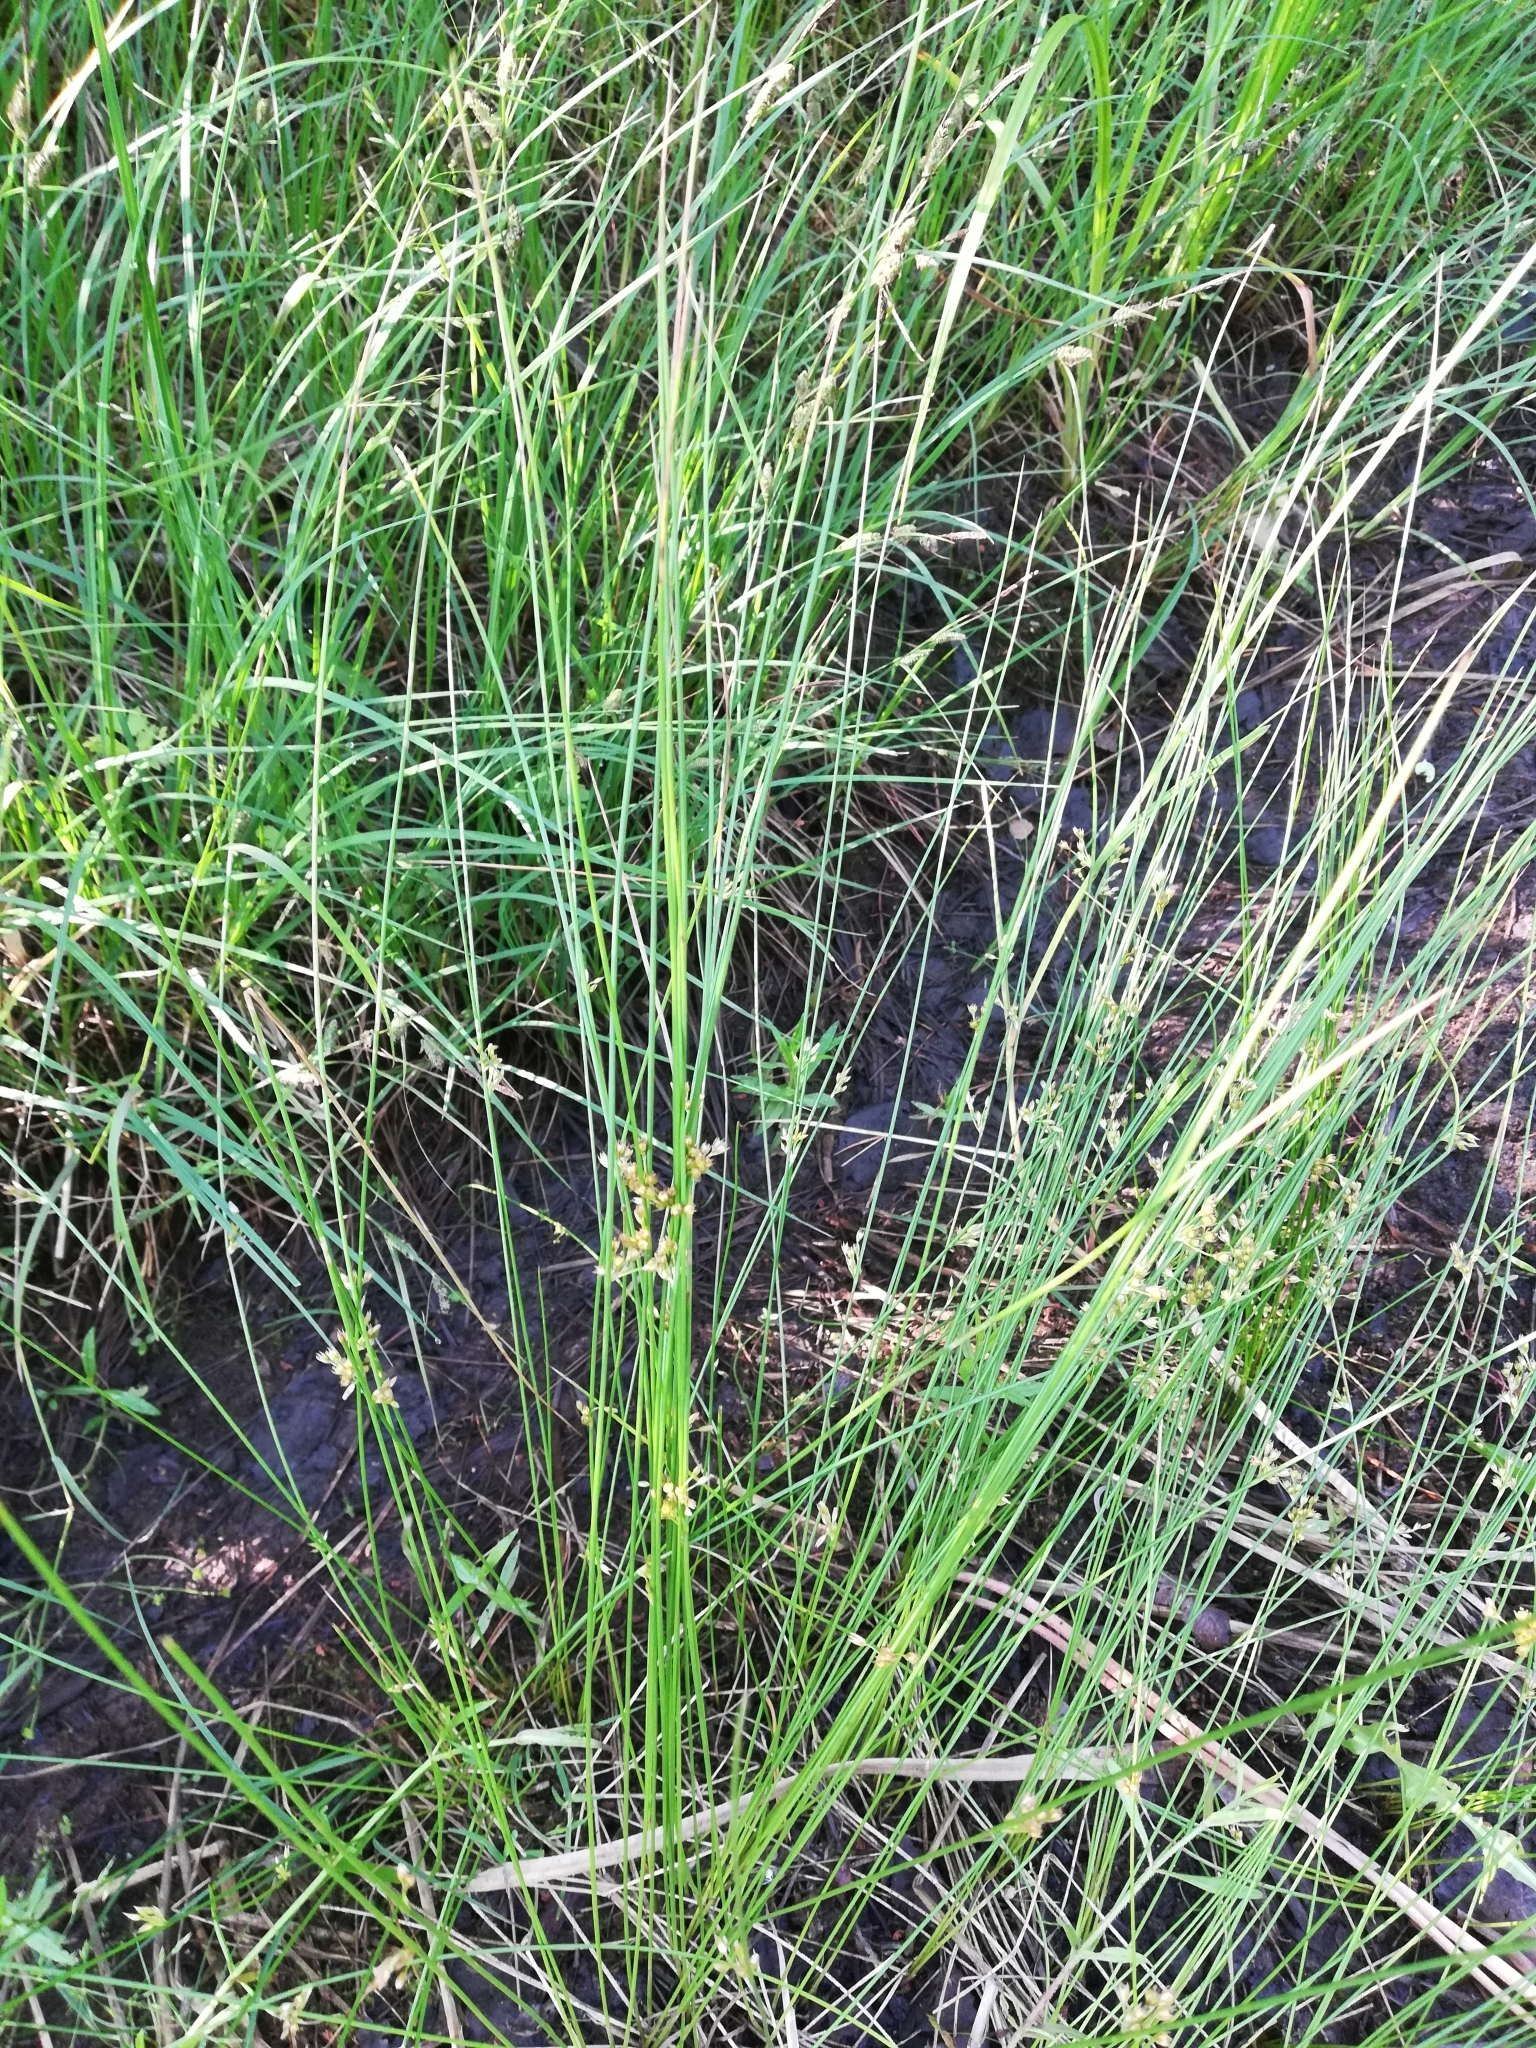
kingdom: Plantae
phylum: Tracheophyta
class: Liliopsida
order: Poales
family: Juncaceae
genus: Juncus
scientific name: Juncus filiformis
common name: Thread rush
